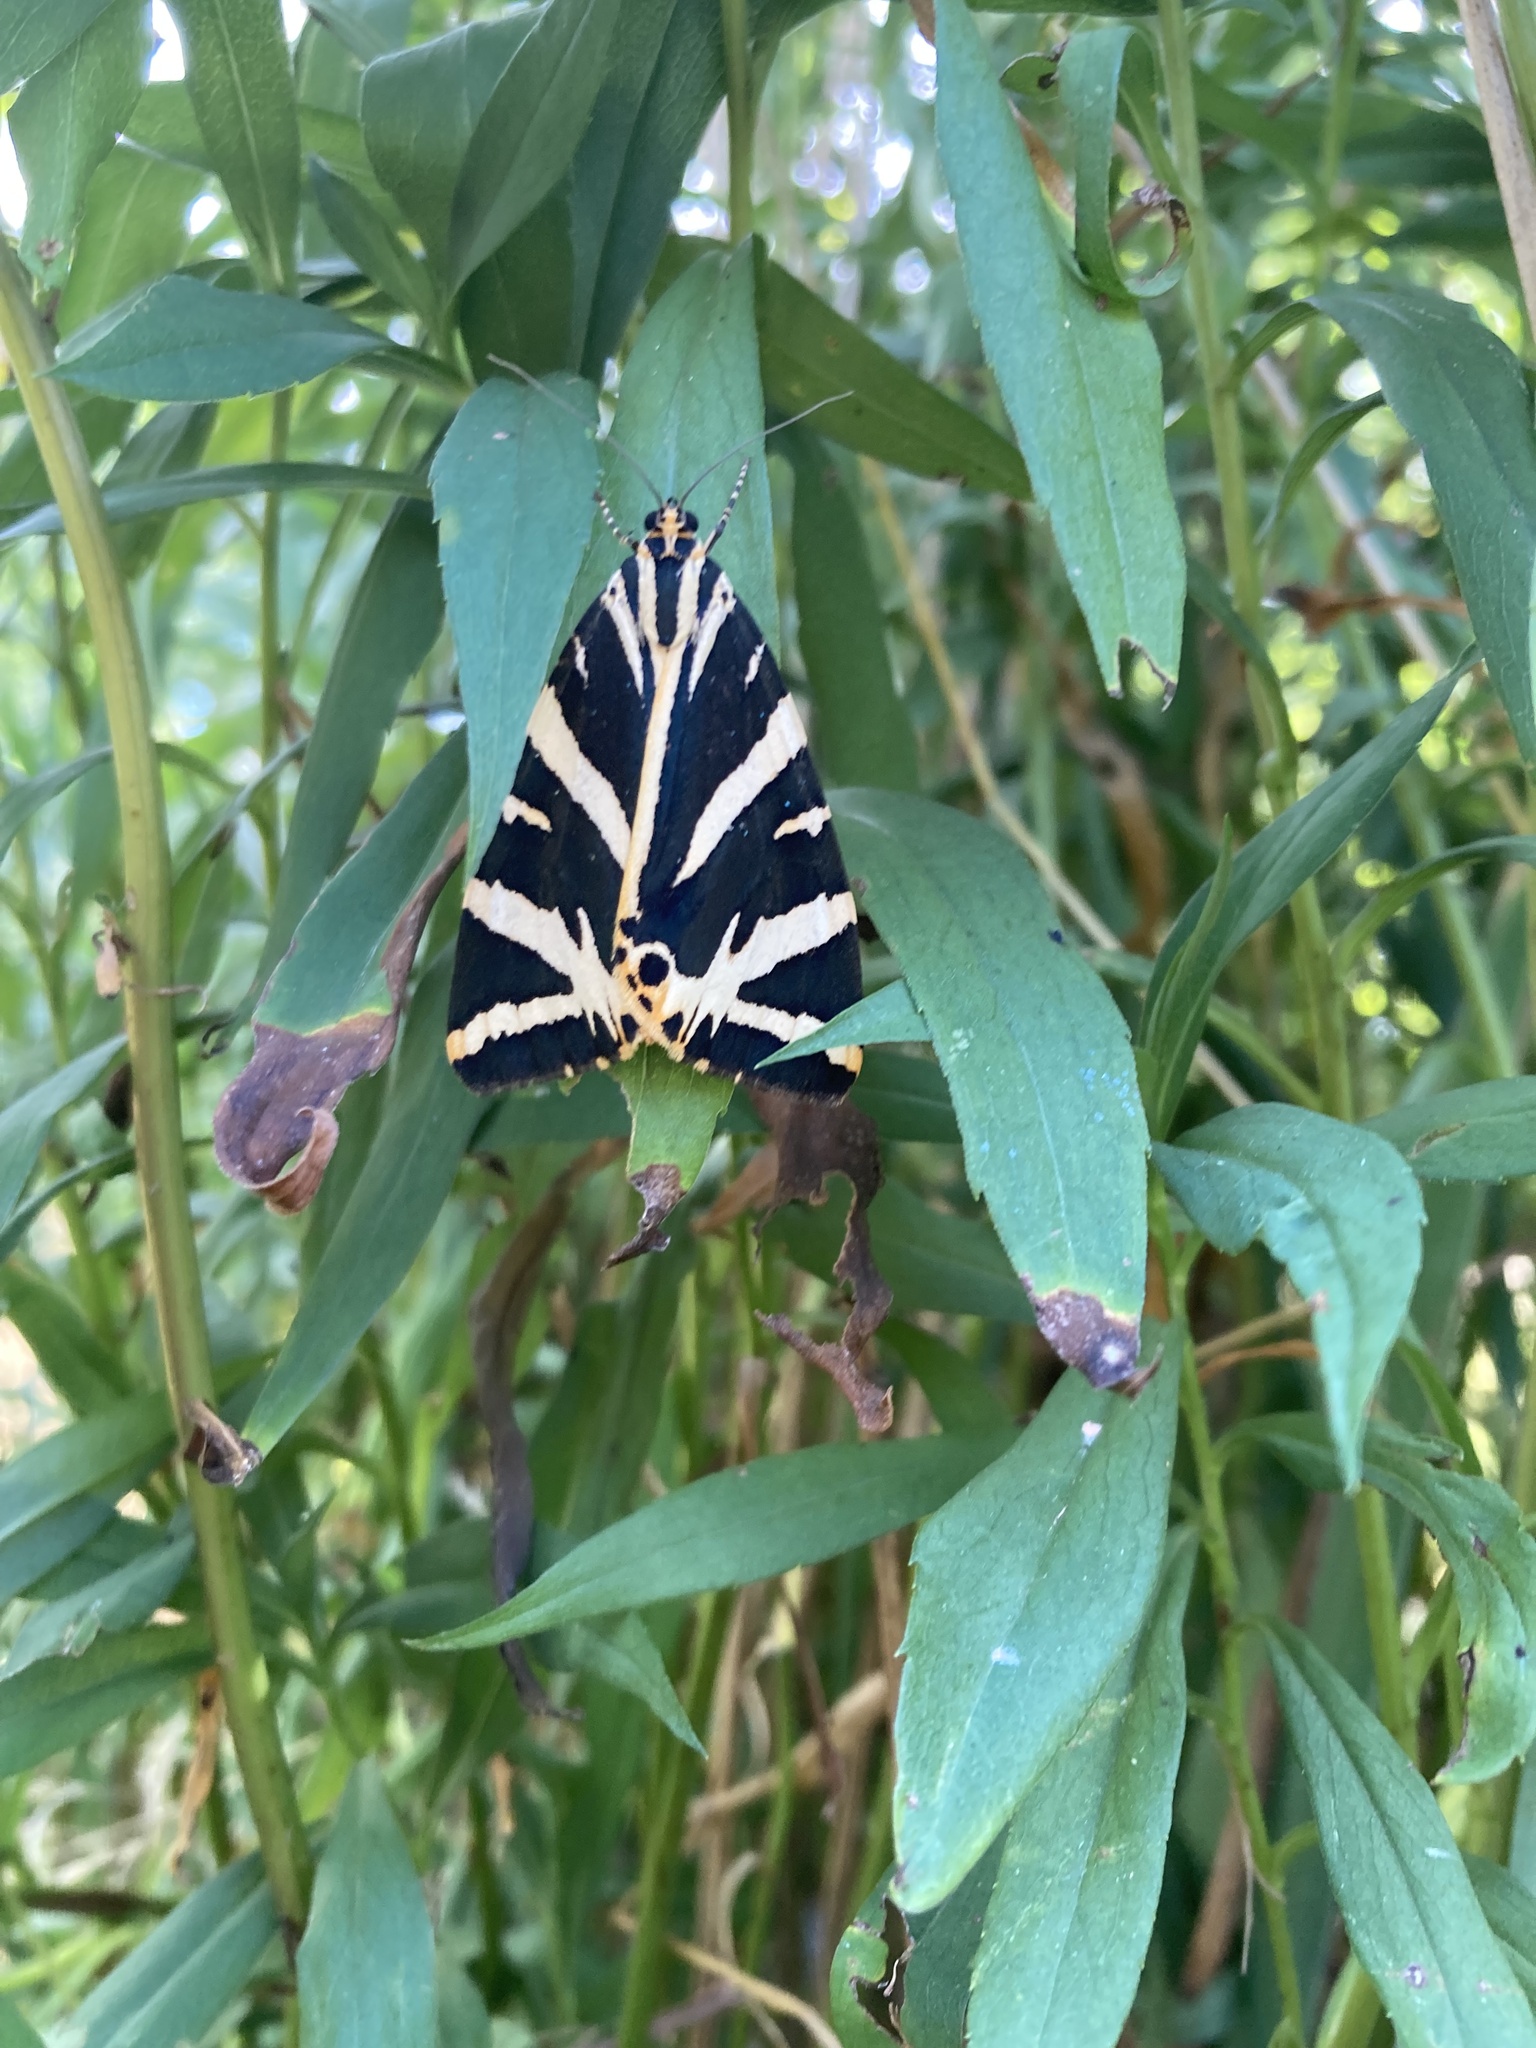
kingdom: Animalia
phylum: Arthropoda
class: Insecta
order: Lepidoptera
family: Erebidae
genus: Euplagia
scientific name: Euplagia quadripunctaria
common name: Jersey tiger
